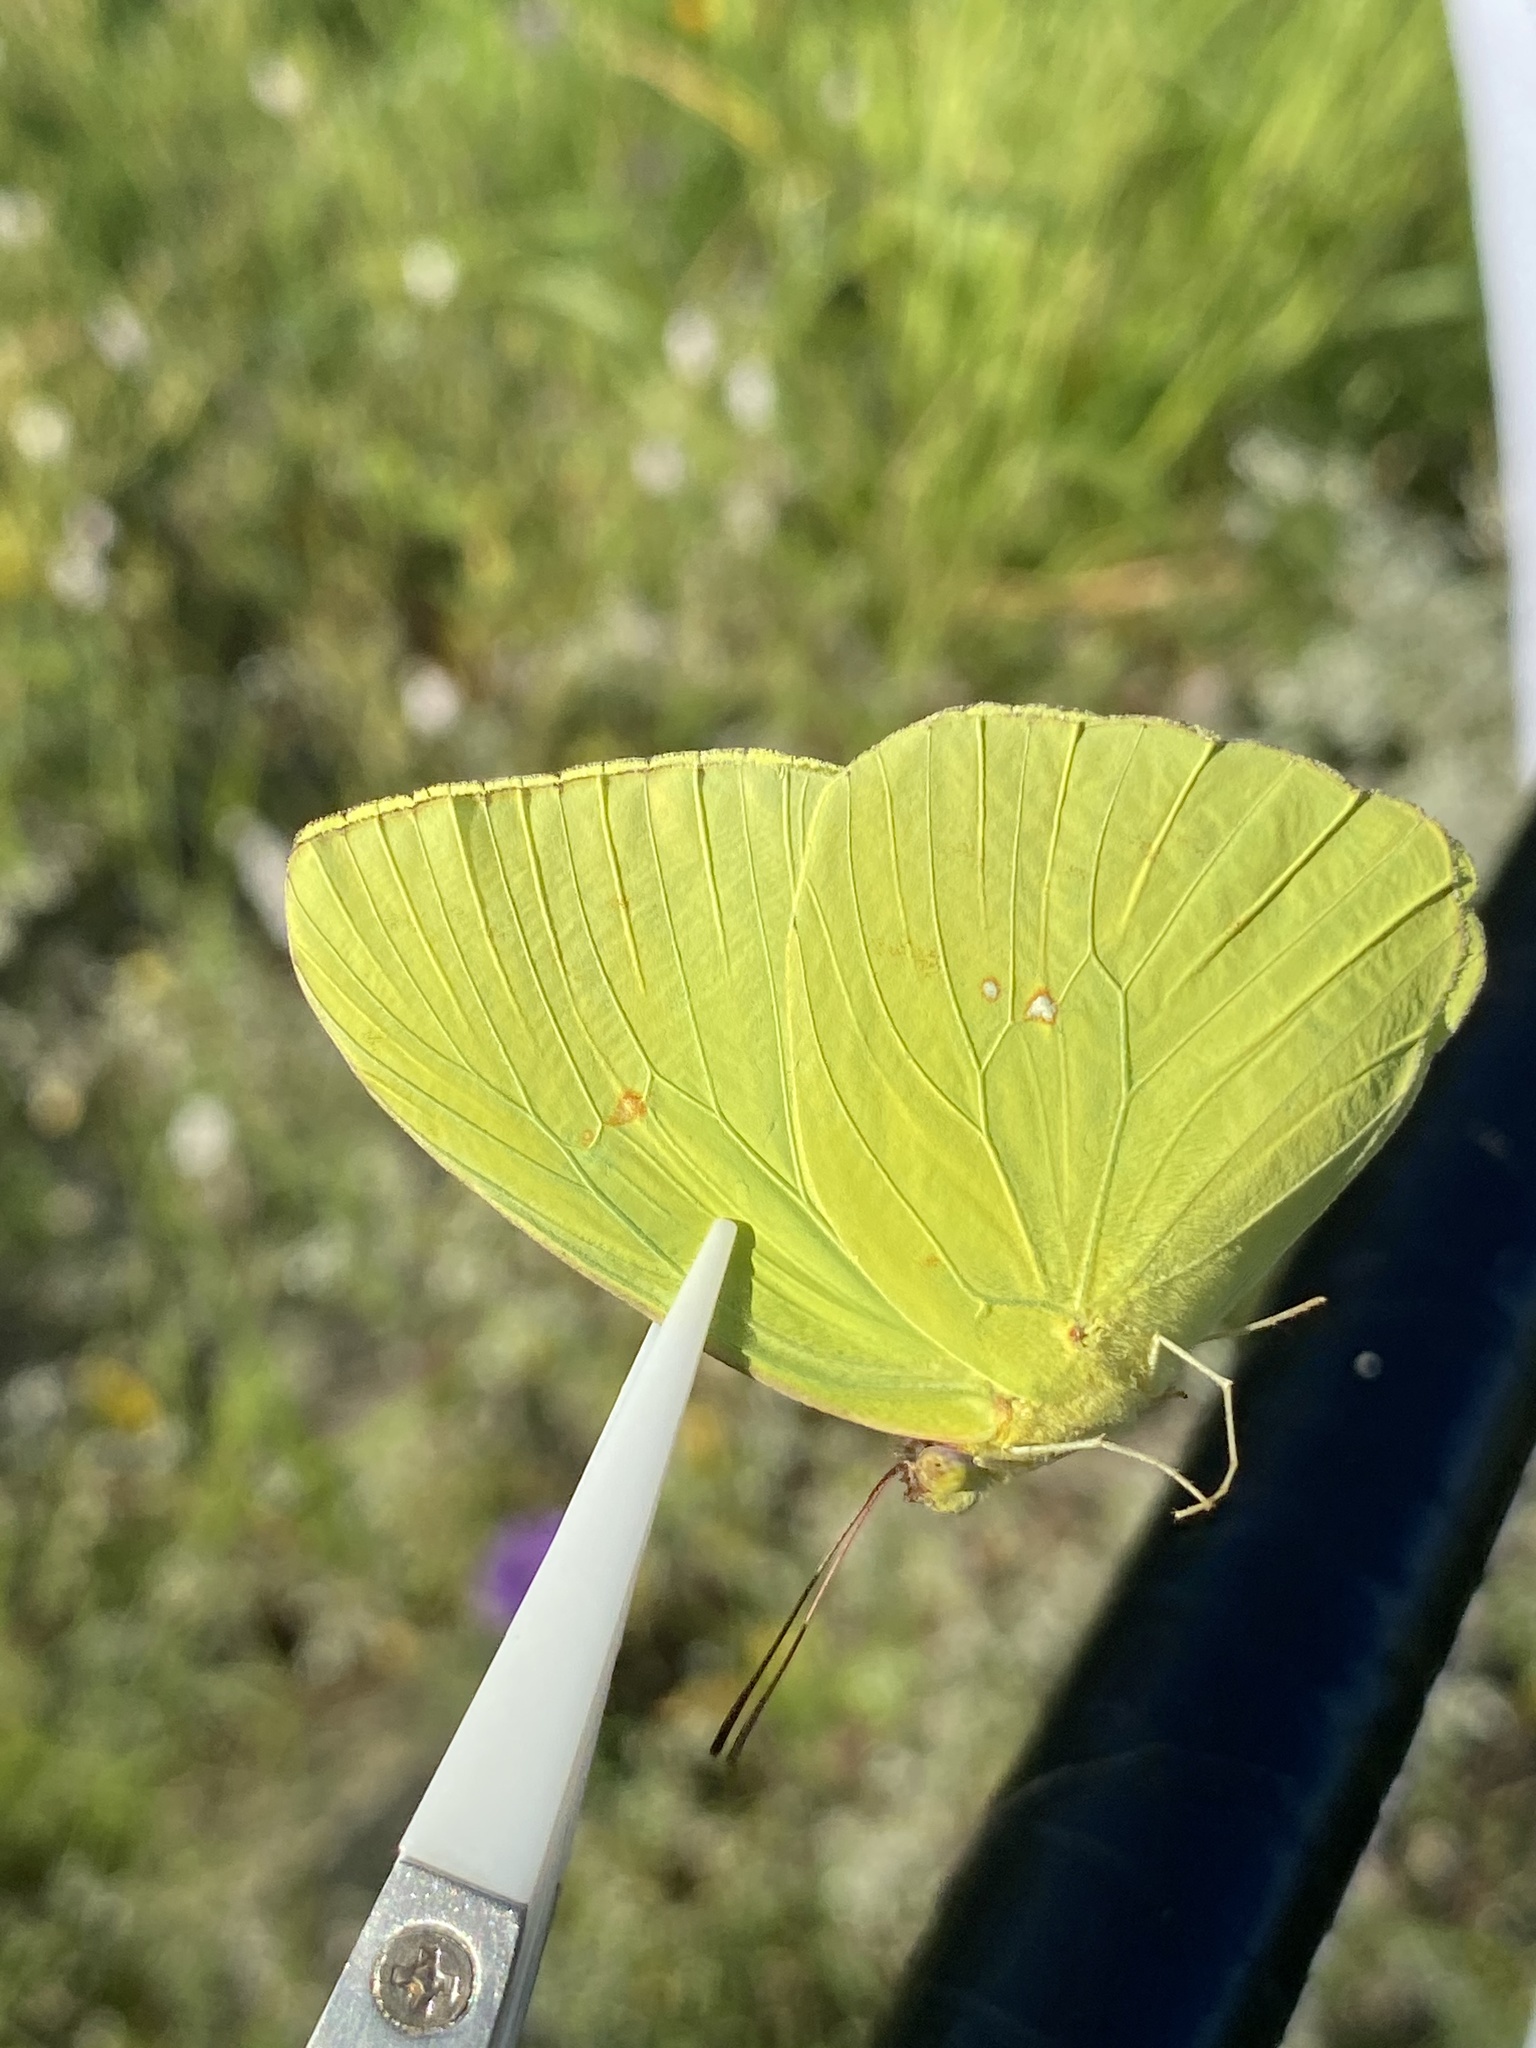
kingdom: Animalia
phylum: Arthropoda
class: Insecta
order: Lepidoptera
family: Pieridae
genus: Phoebis
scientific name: Phoebis marcellina
